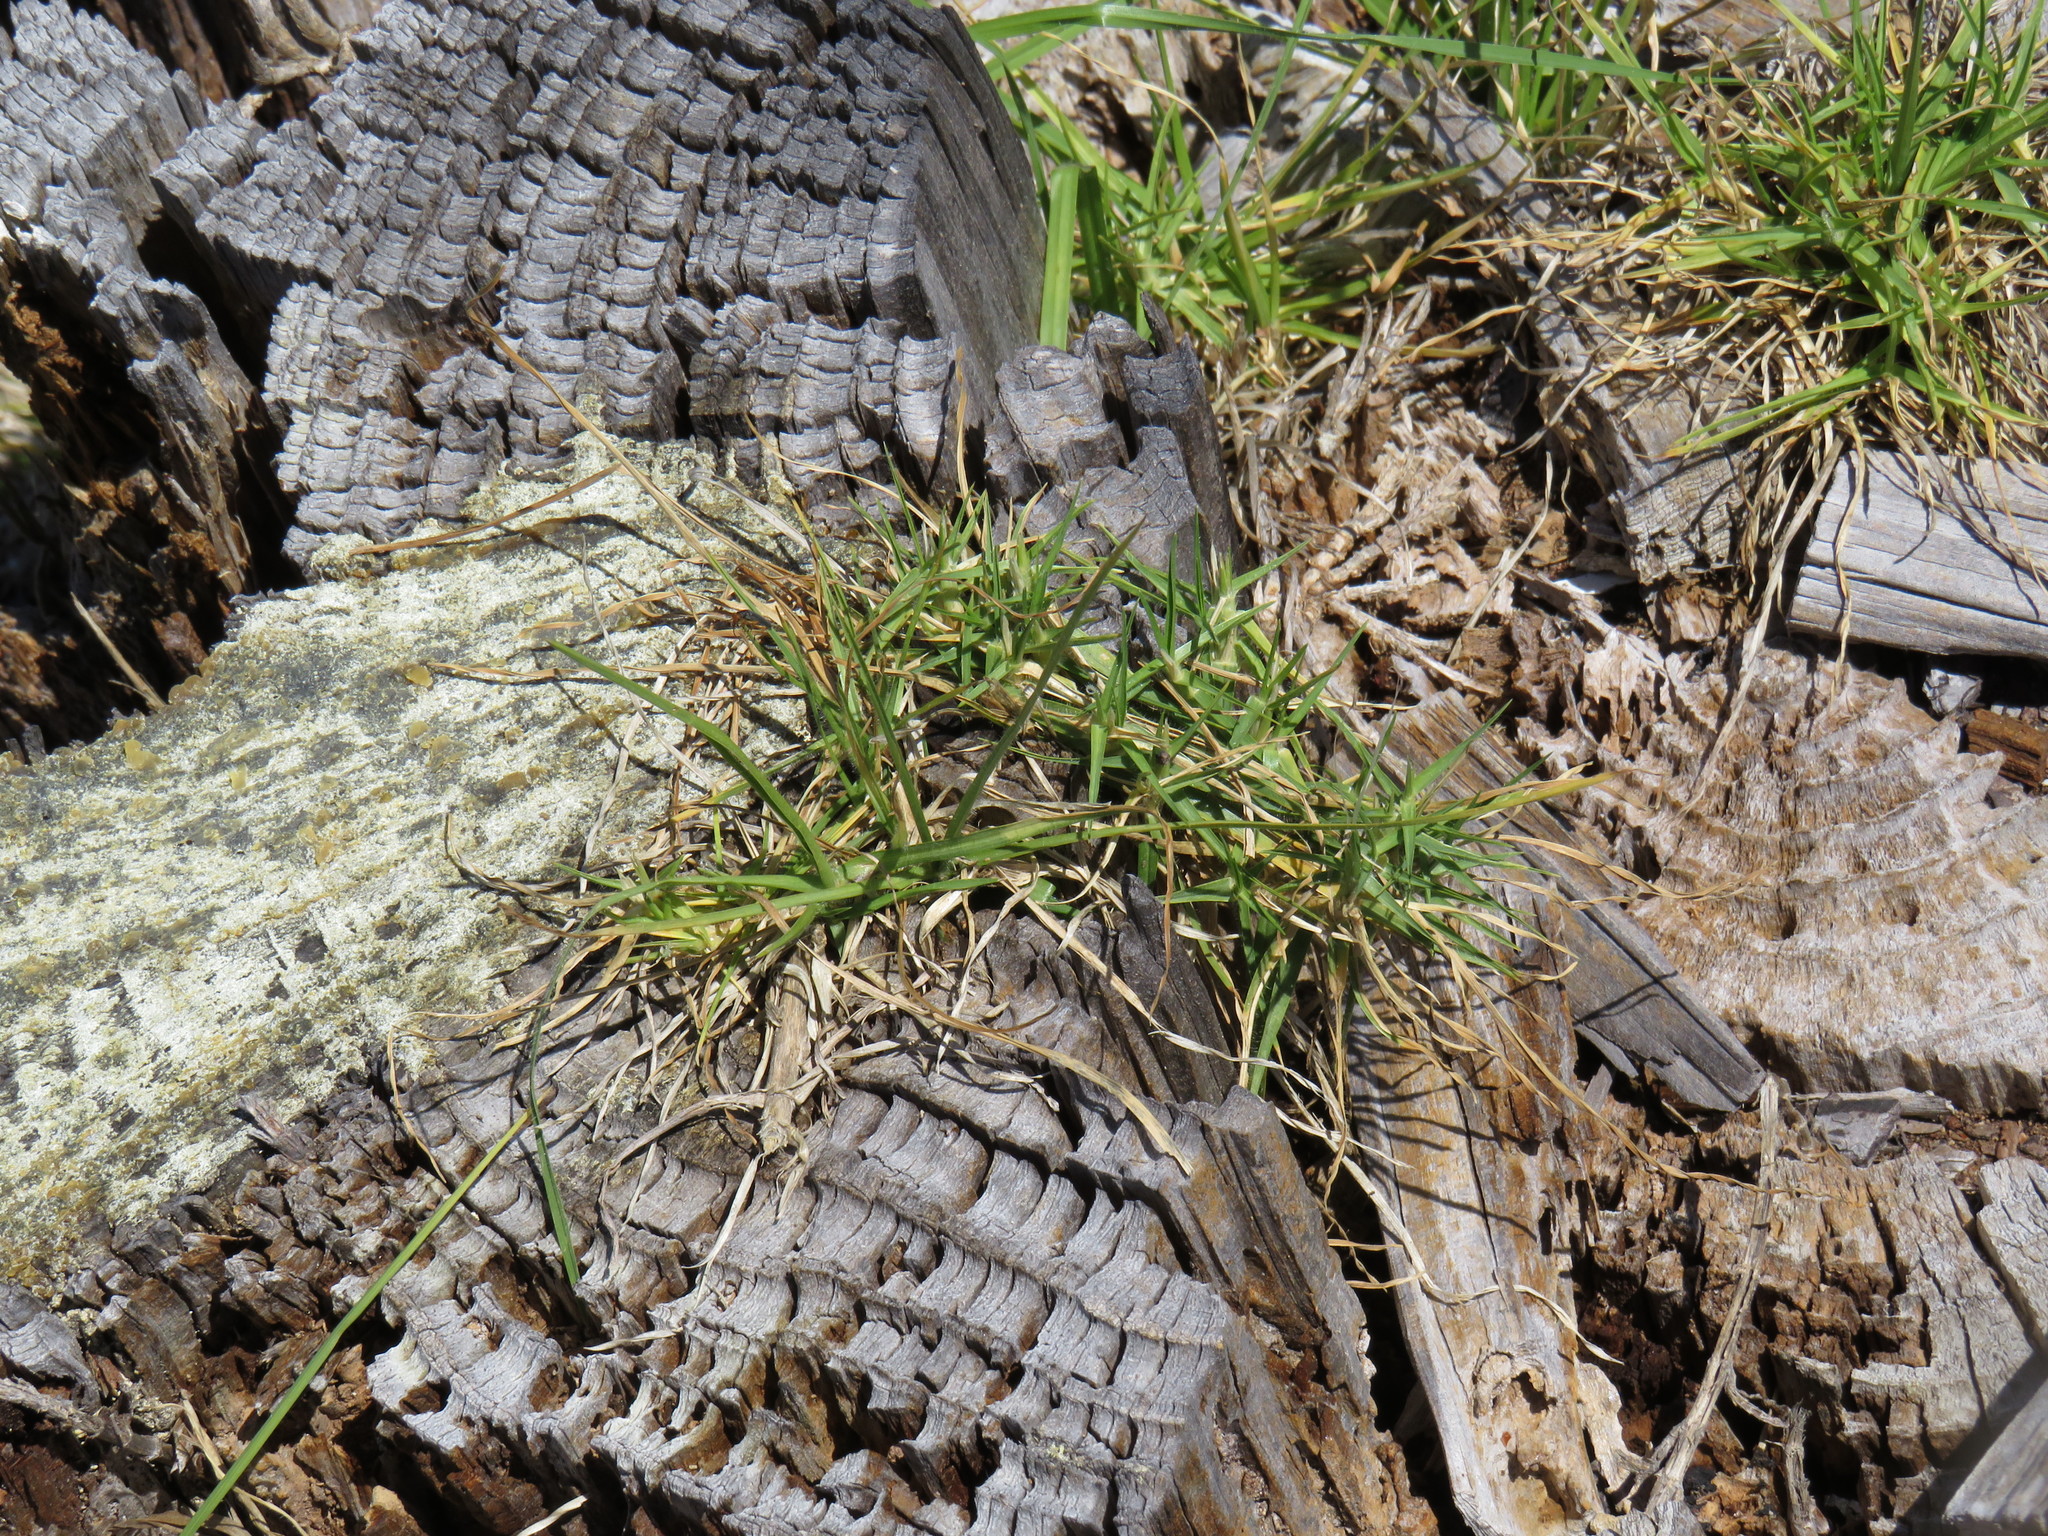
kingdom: Plantae
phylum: Tracheophyta
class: Liliopsida
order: Poales
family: Poaceae
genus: Cenchrus
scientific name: Cenchrus clandestinus
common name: Kikuyugrass
